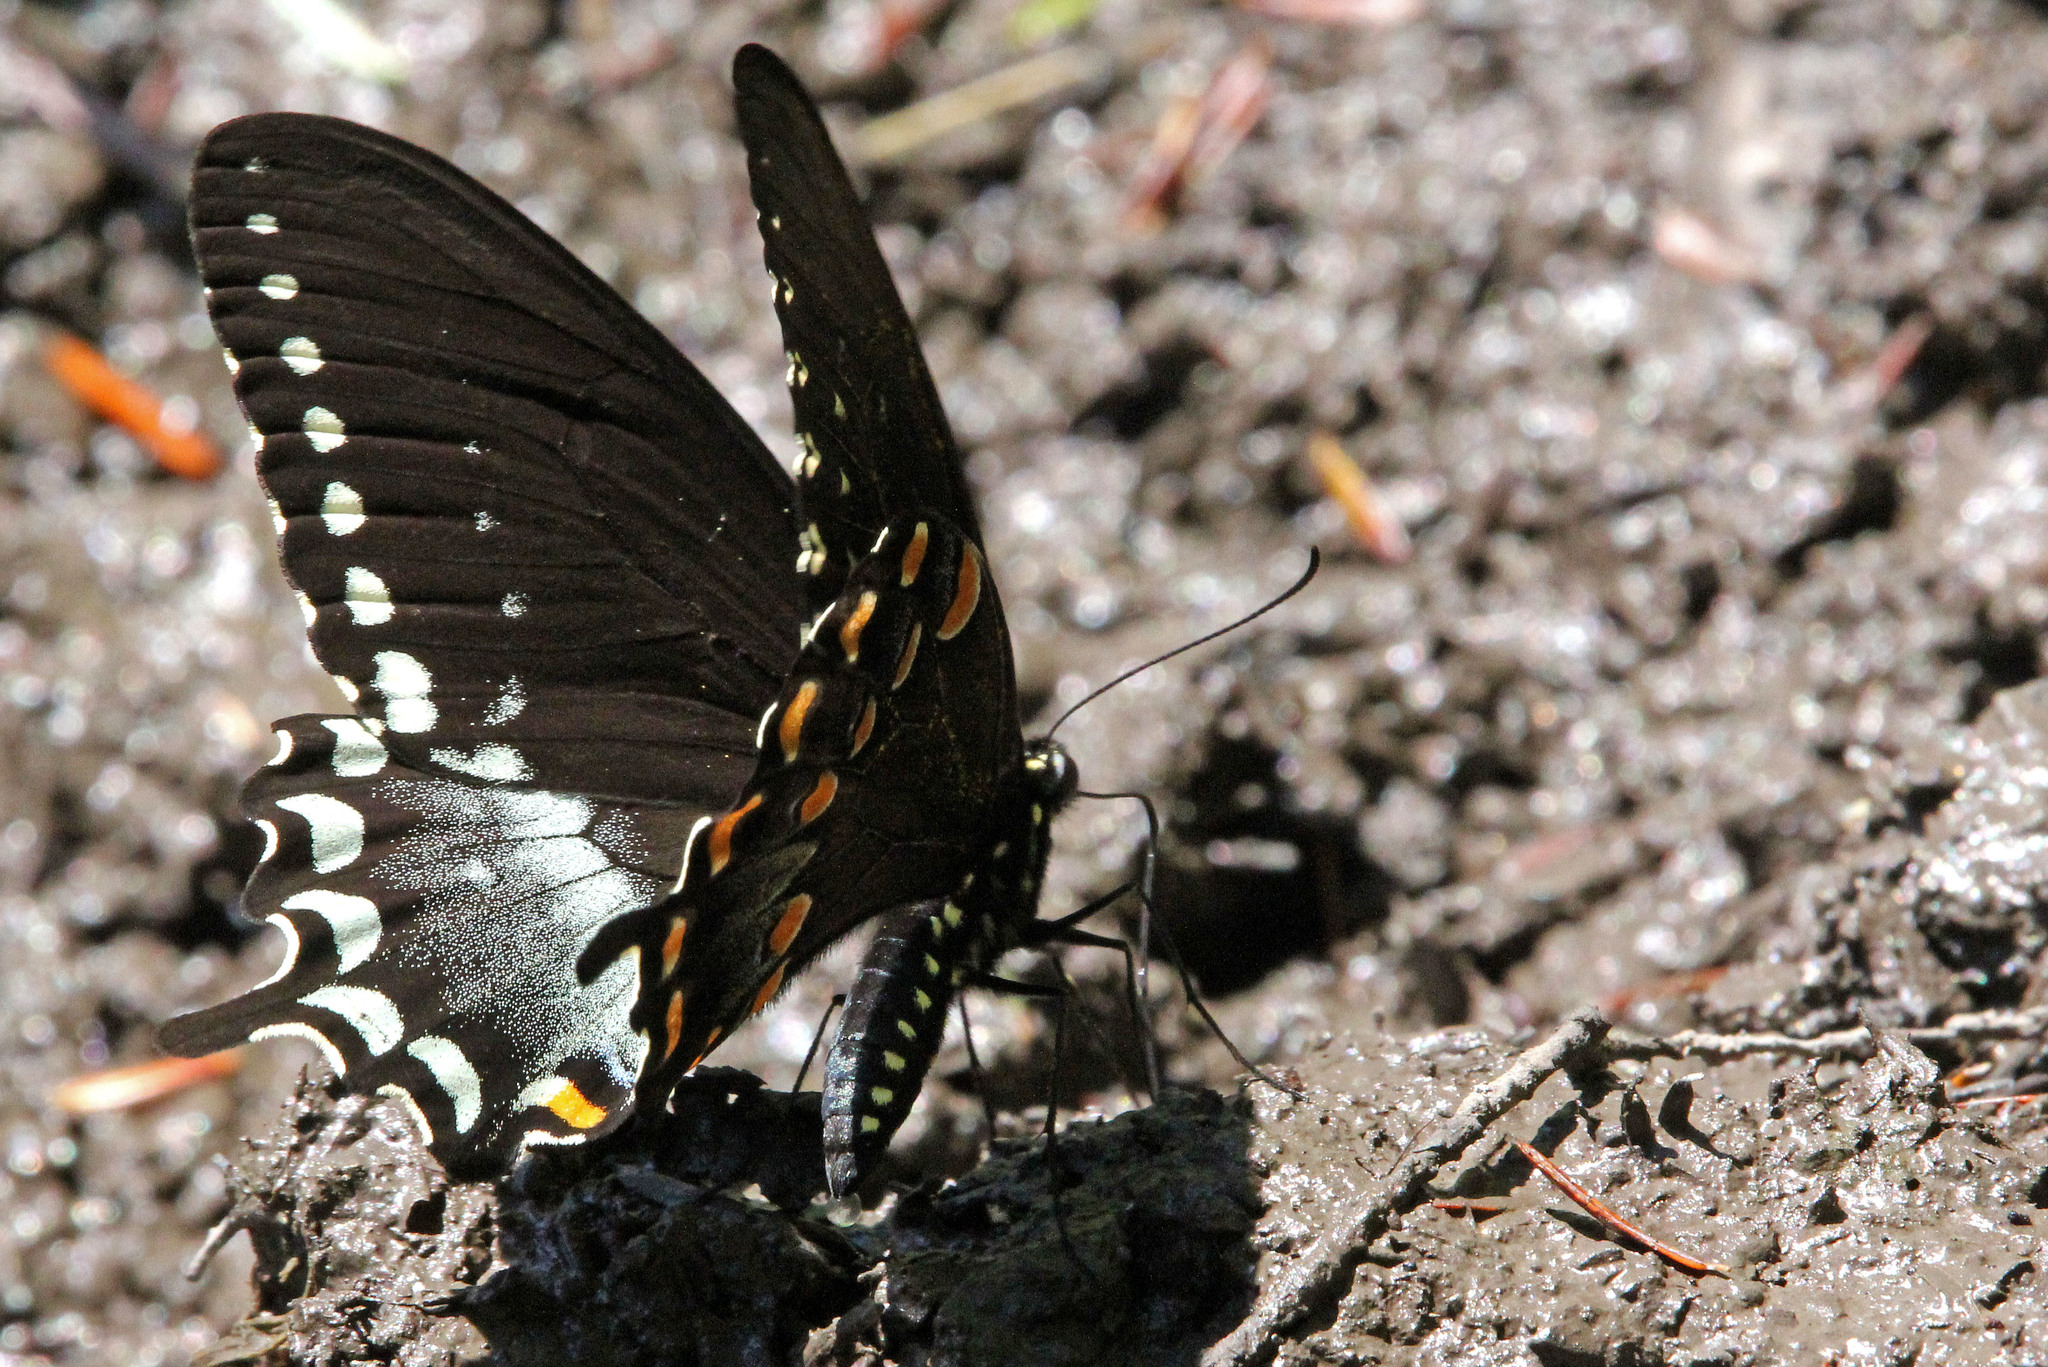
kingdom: Animalia
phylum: Arthropoda
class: Insecta
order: Lepidoptera
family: Papilionidae
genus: Papilio
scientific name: Papilio troilus
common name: Spicebush swallowtail
